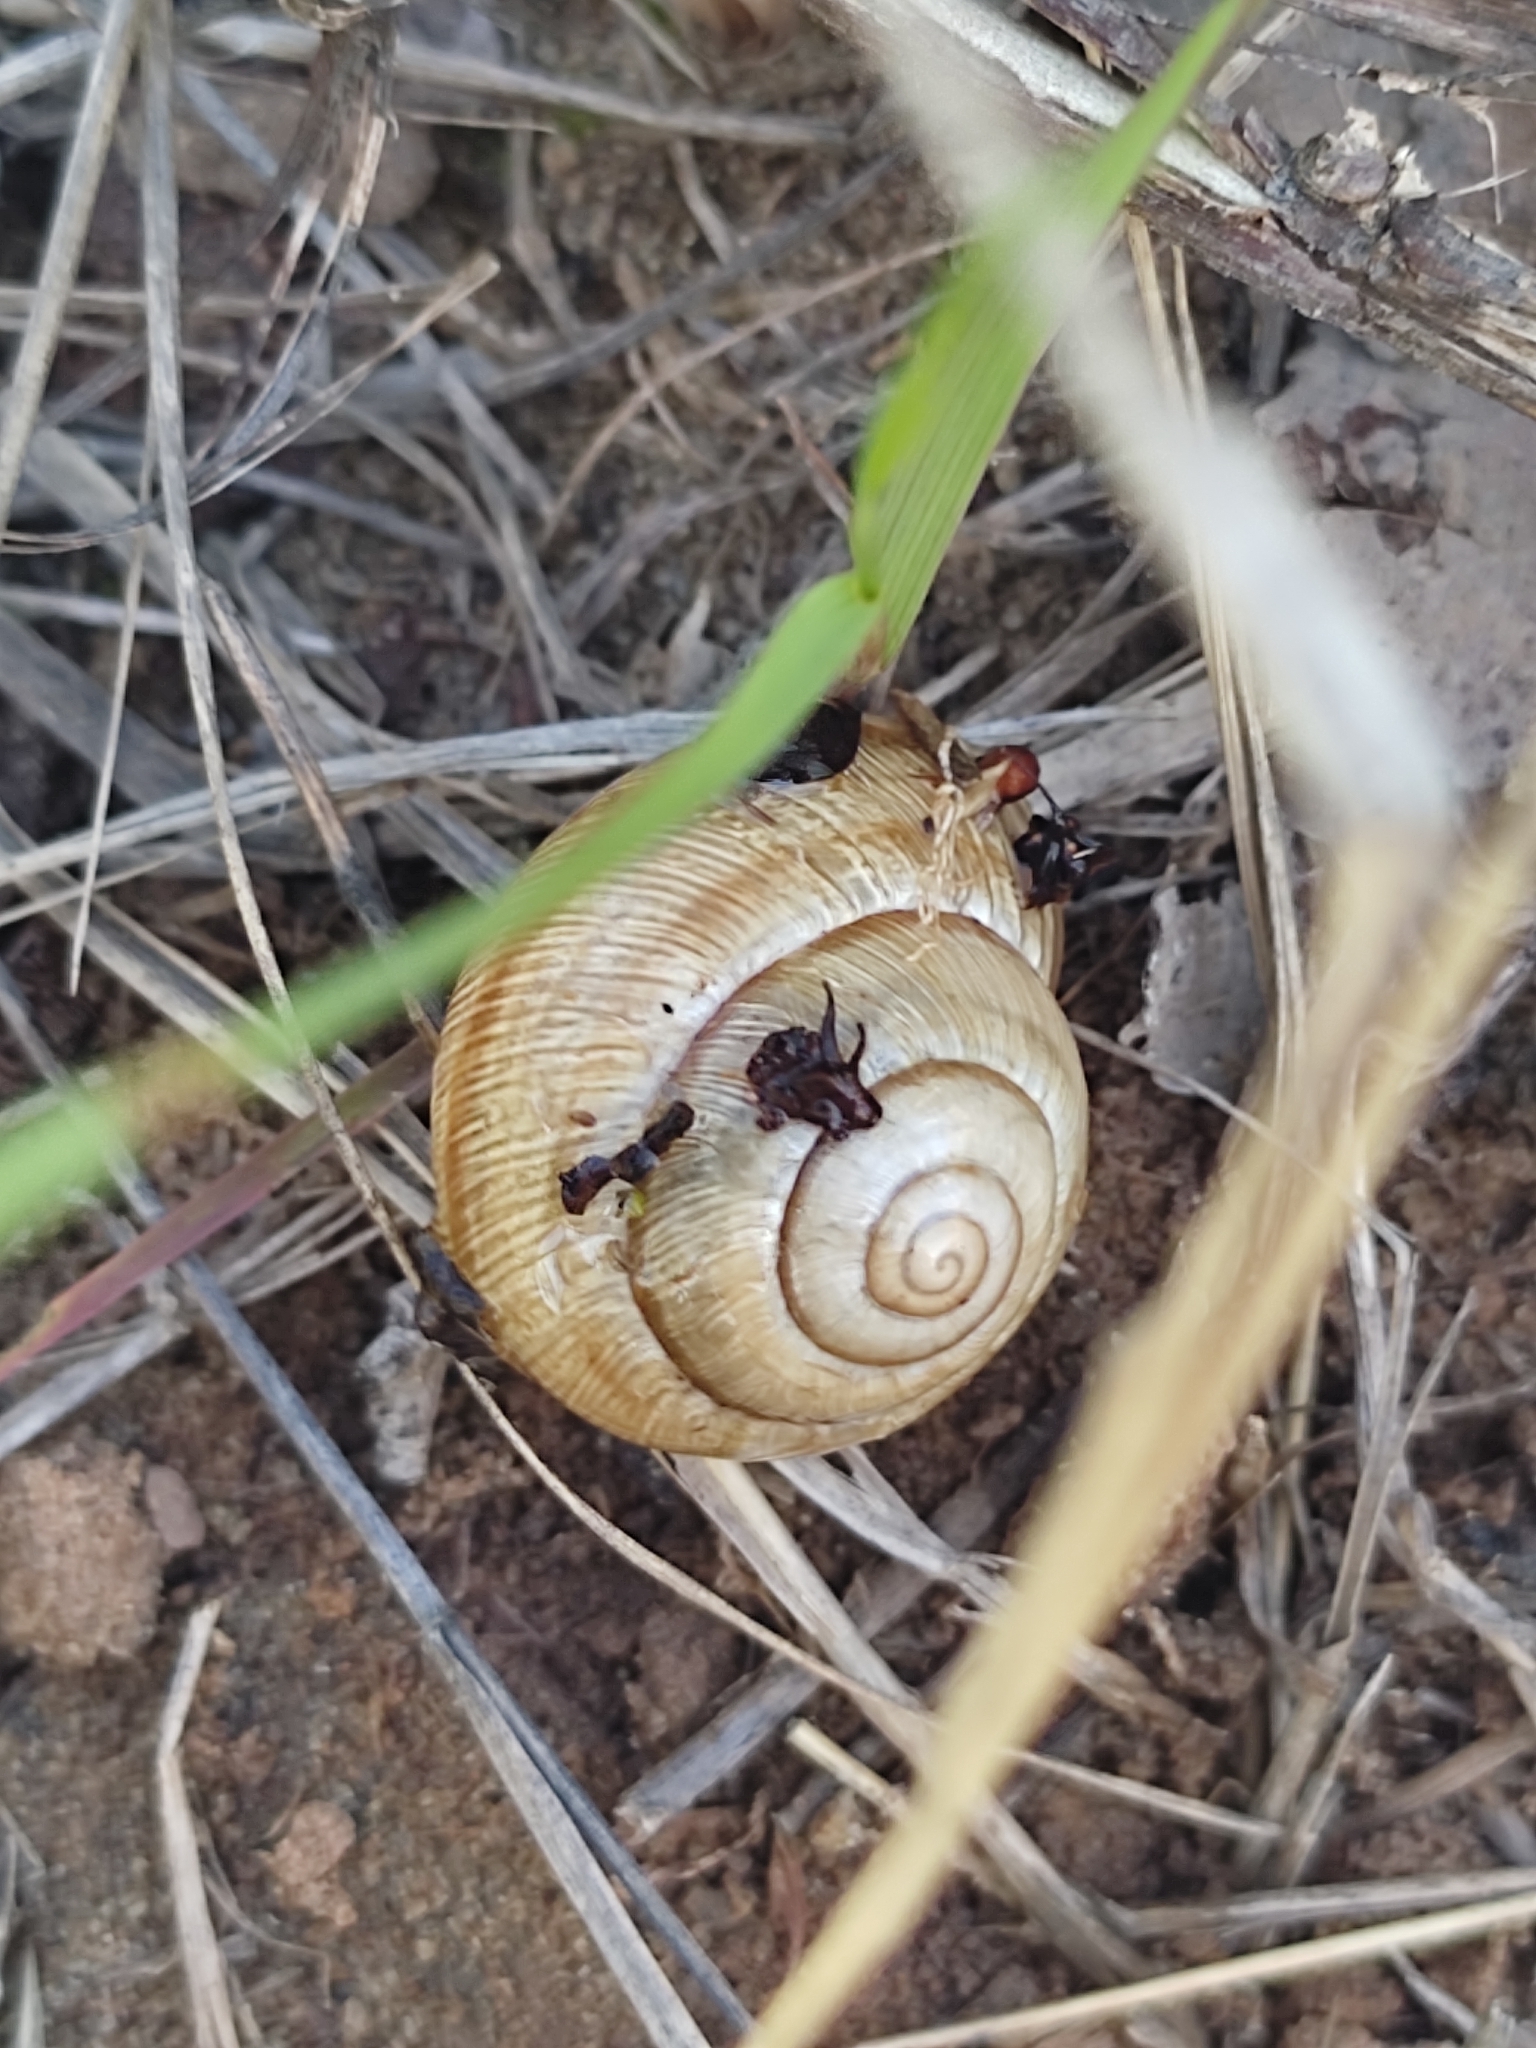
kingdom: Animalia
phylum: Mollusca
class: Gastropoda
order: Stylommatophora
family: Helicidae
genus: Caucasotachea
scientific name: Caucasotachea vindobonensis
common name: European helicid land snail
